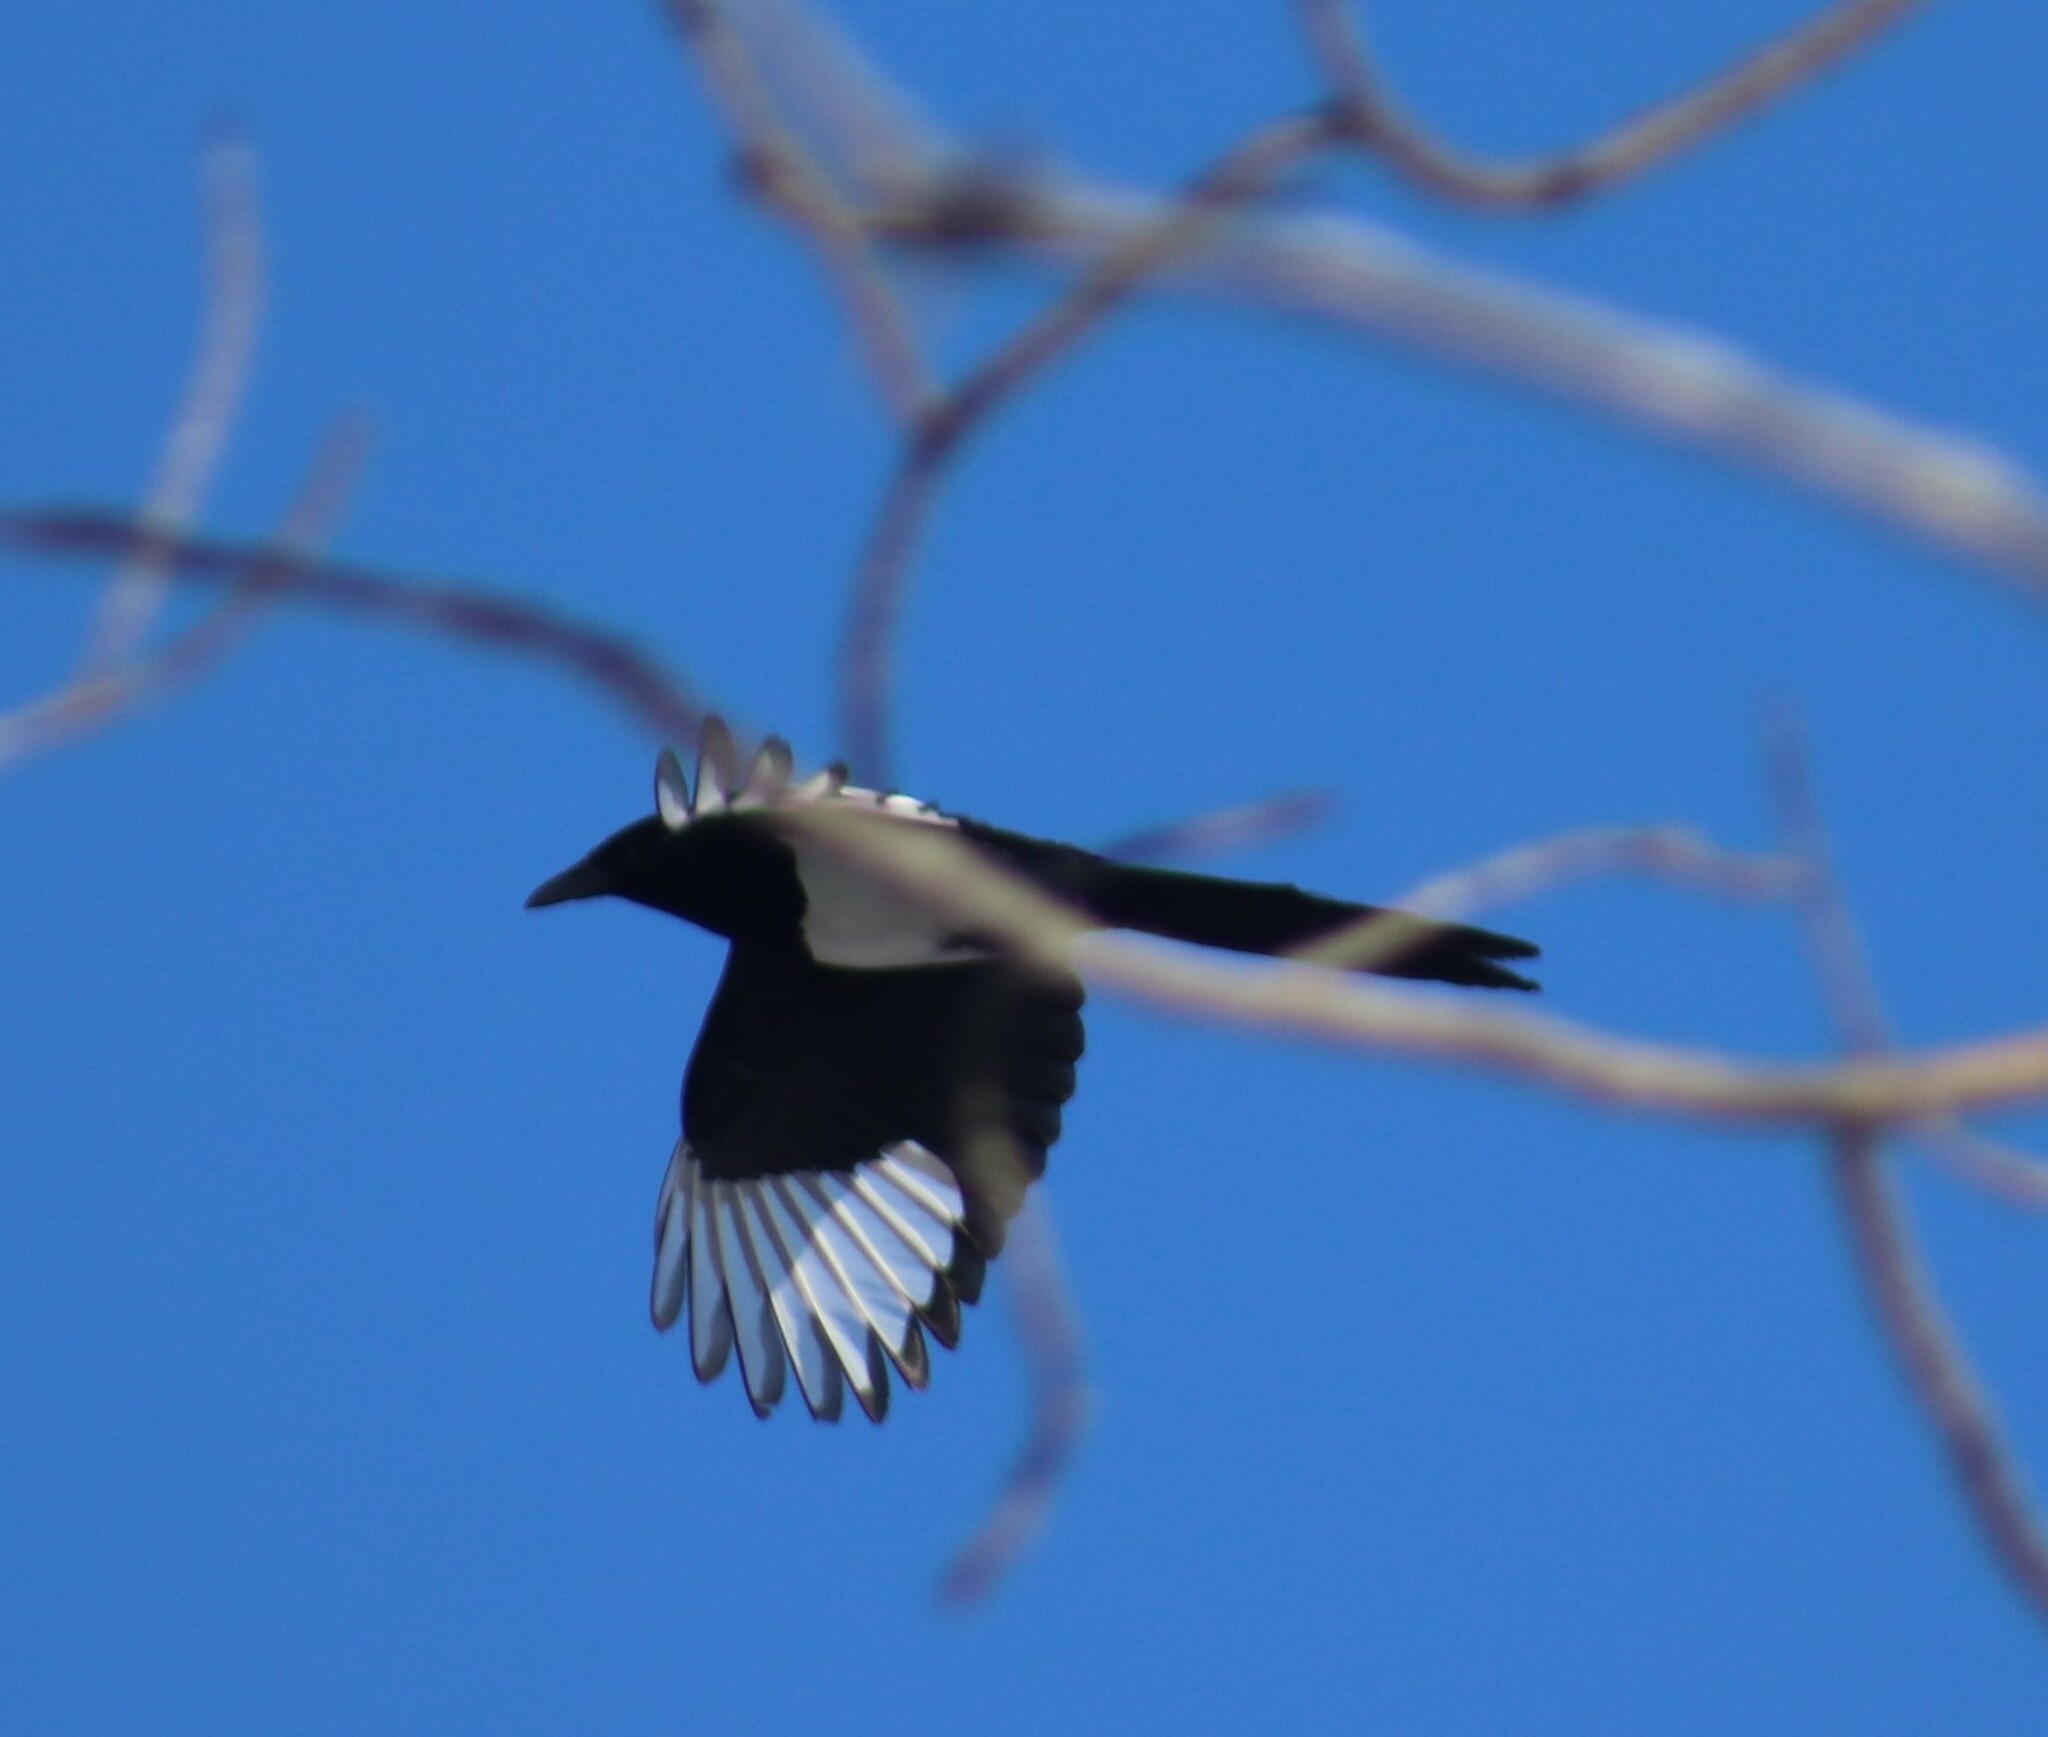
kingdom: Animalia
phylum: Chordata
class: Aves
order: Passeriformes
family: Corvidae
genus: Pica
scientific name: Pica hudsonia
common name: Black-billed magpie
